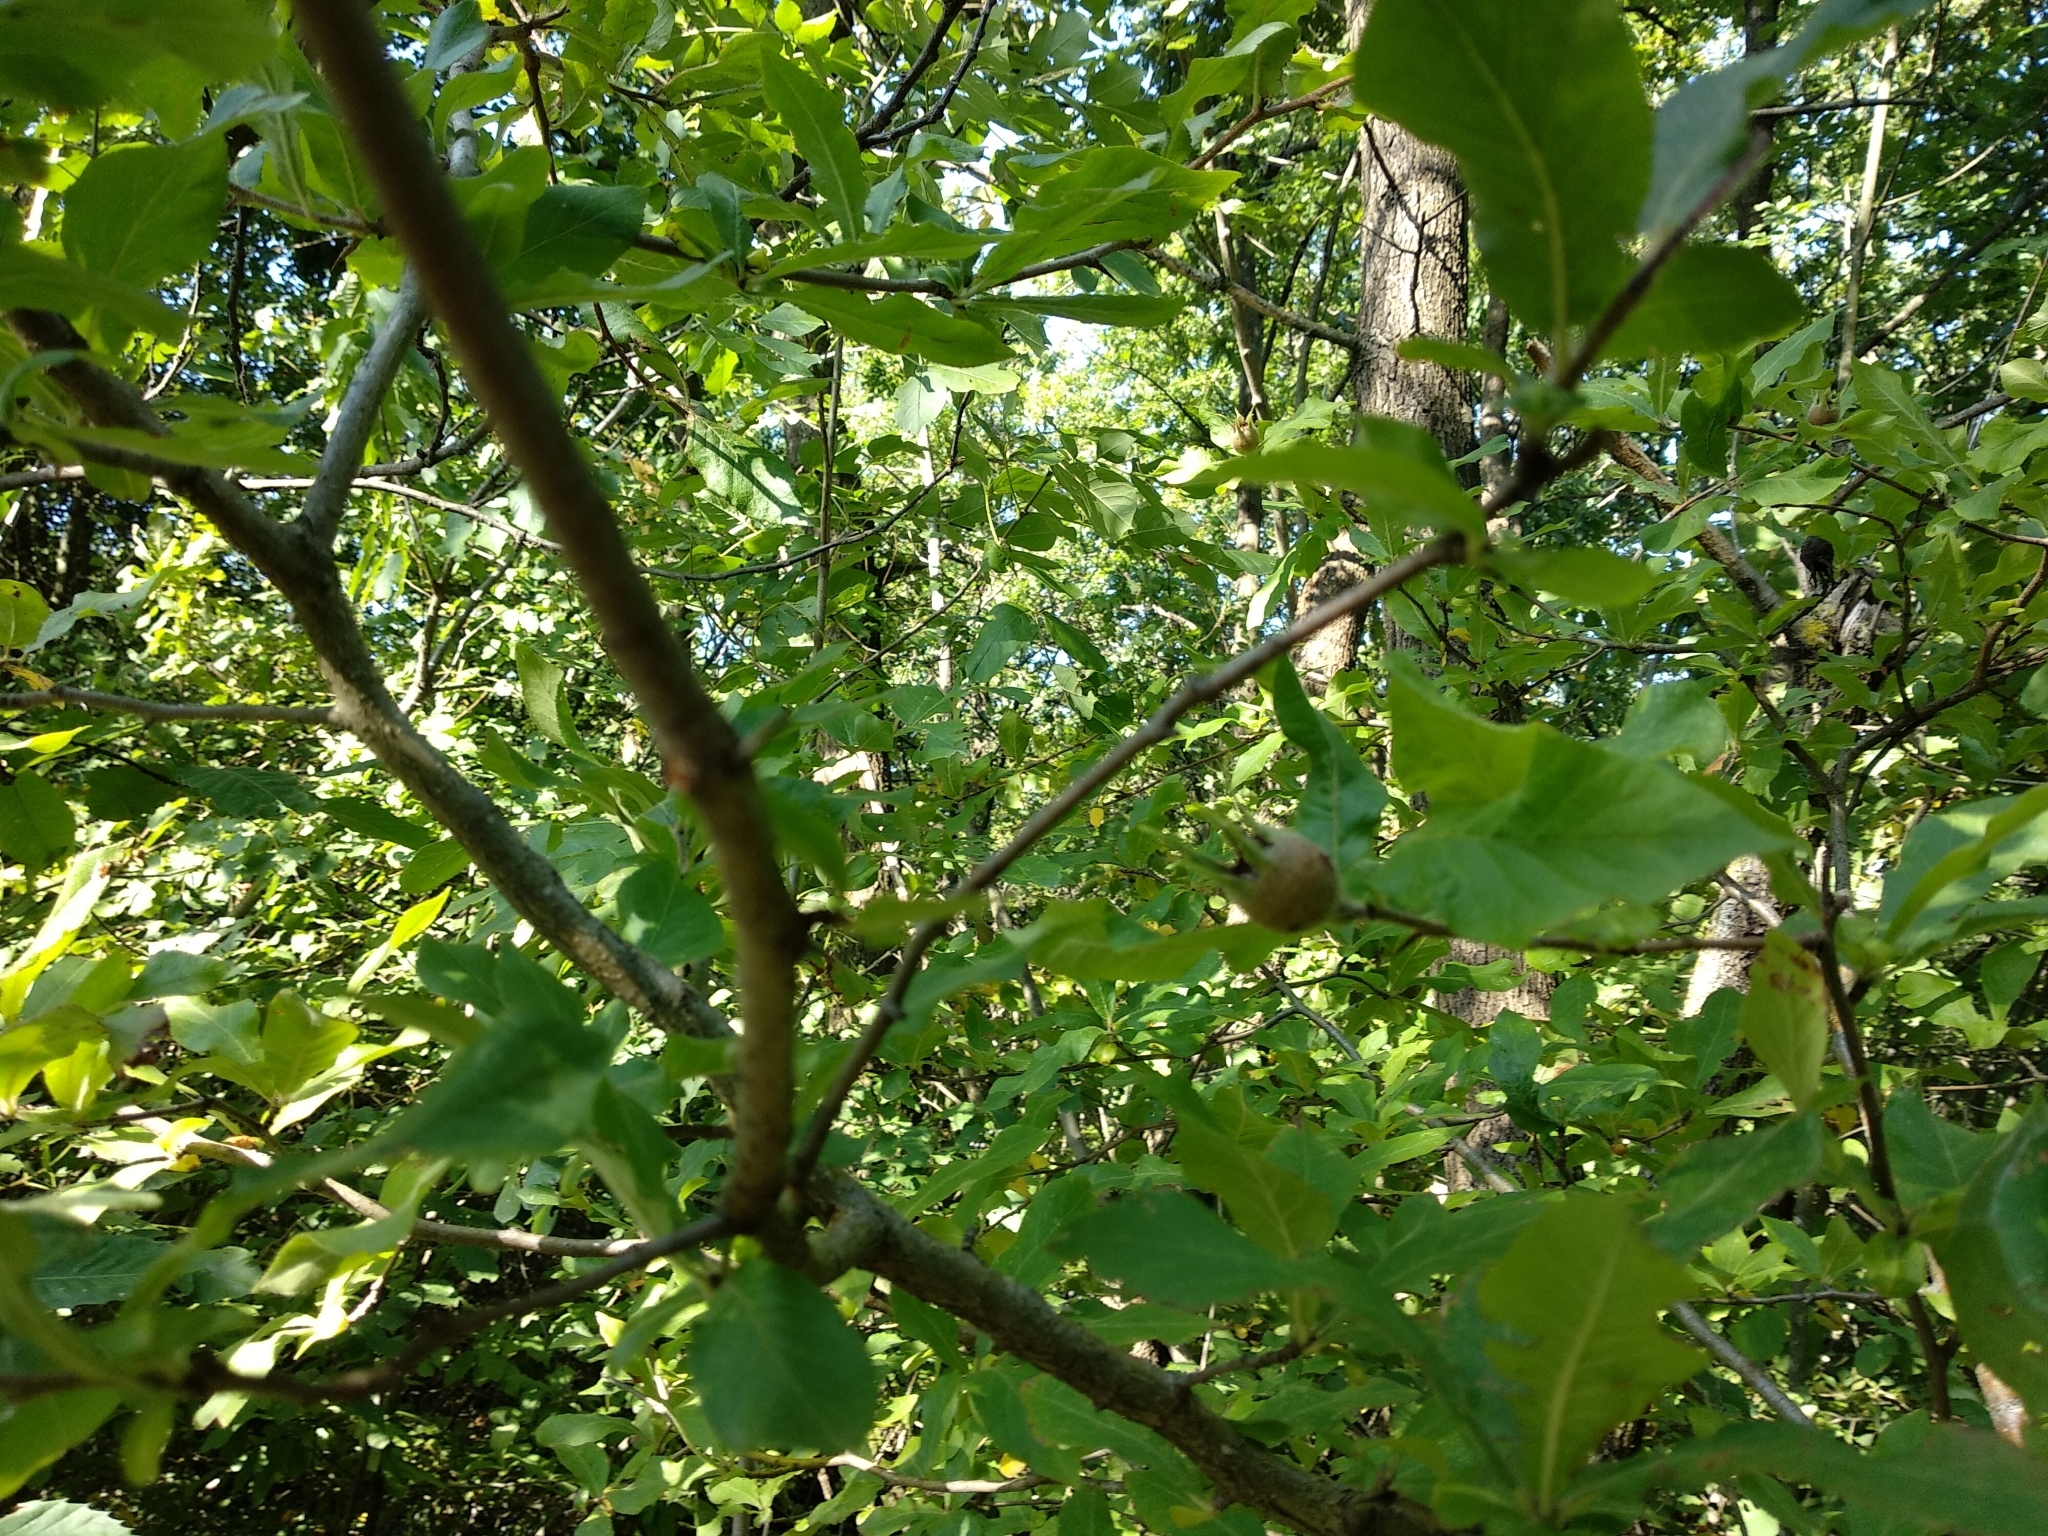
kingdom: Plantae
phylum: Tracheophyta
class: Magnoliopsida
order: Rosales
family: Rosaceae
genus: Mespilus
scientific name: Mespilus germanica
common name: Medlar
